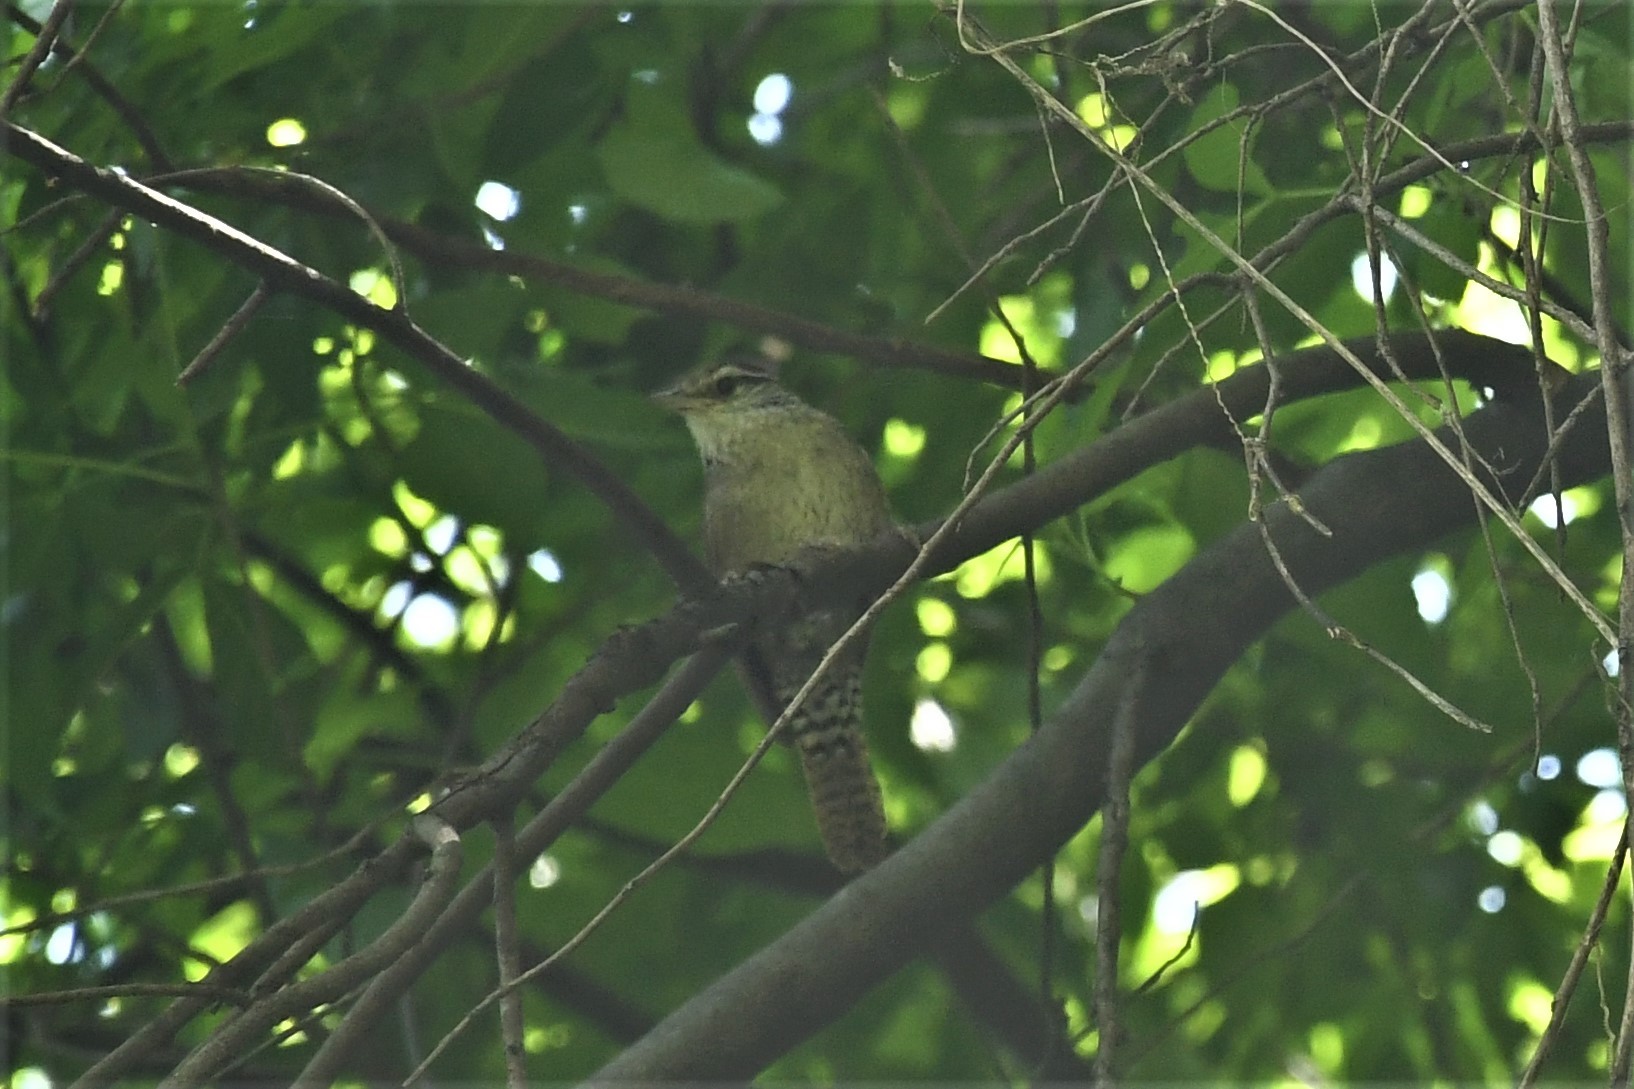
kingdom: Animalia
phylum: Chordata
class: Aves
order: Passeriformes
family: Troglodytidae
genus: Thryophilus
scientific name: Thryophilus sinaloa
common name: Sinaloa wren
